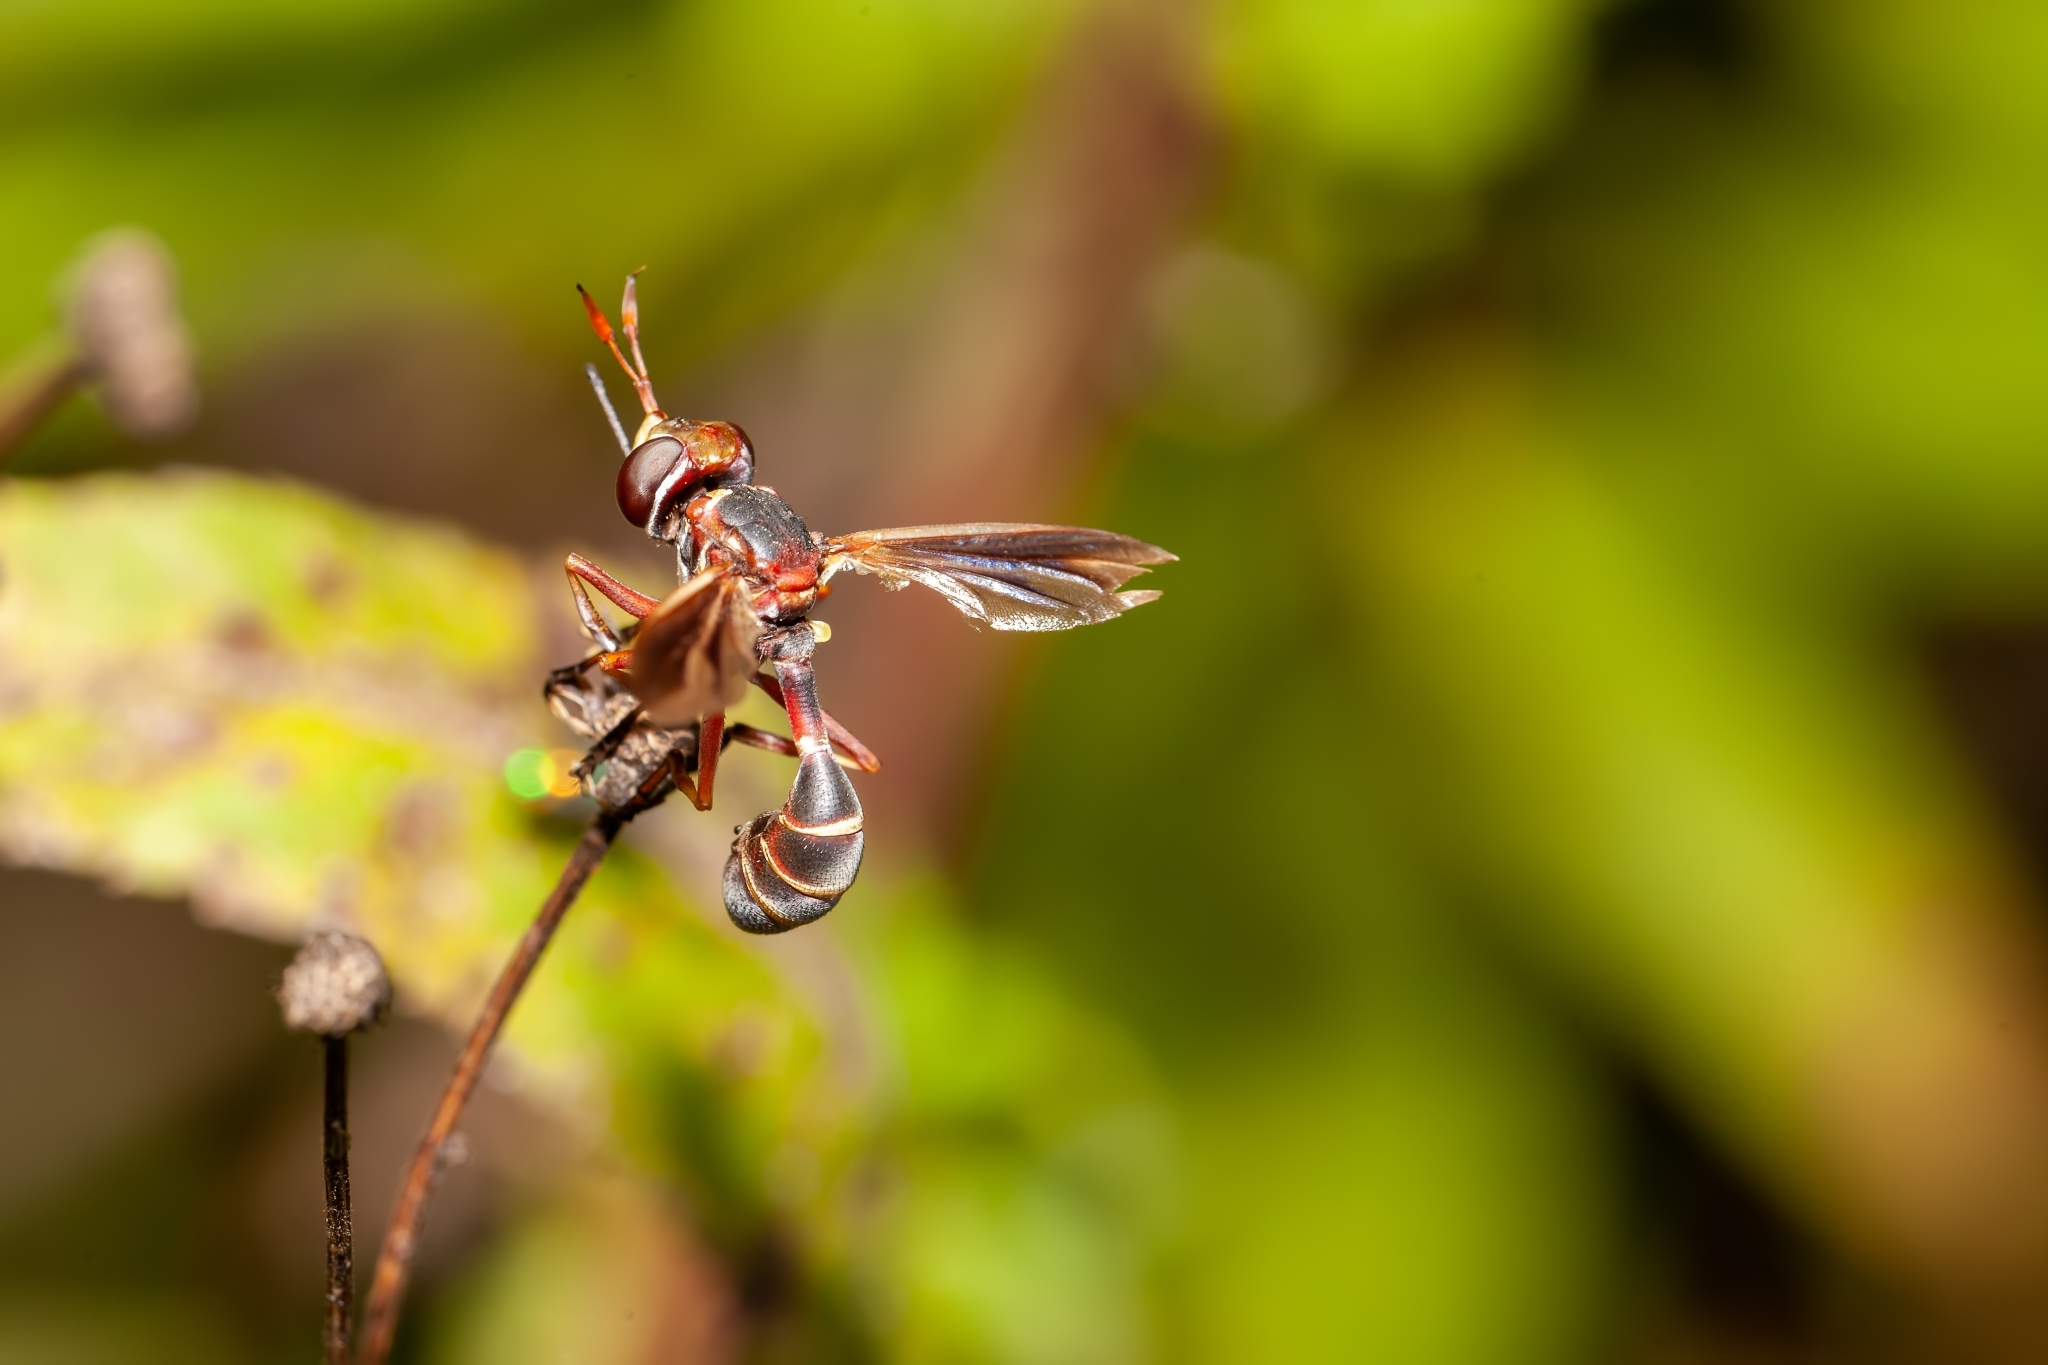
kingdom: Animalia
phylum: Arthropoda
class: Insecta
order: Diptera
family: Conopidae
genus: Physoconops
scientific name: Physoconops excisus
